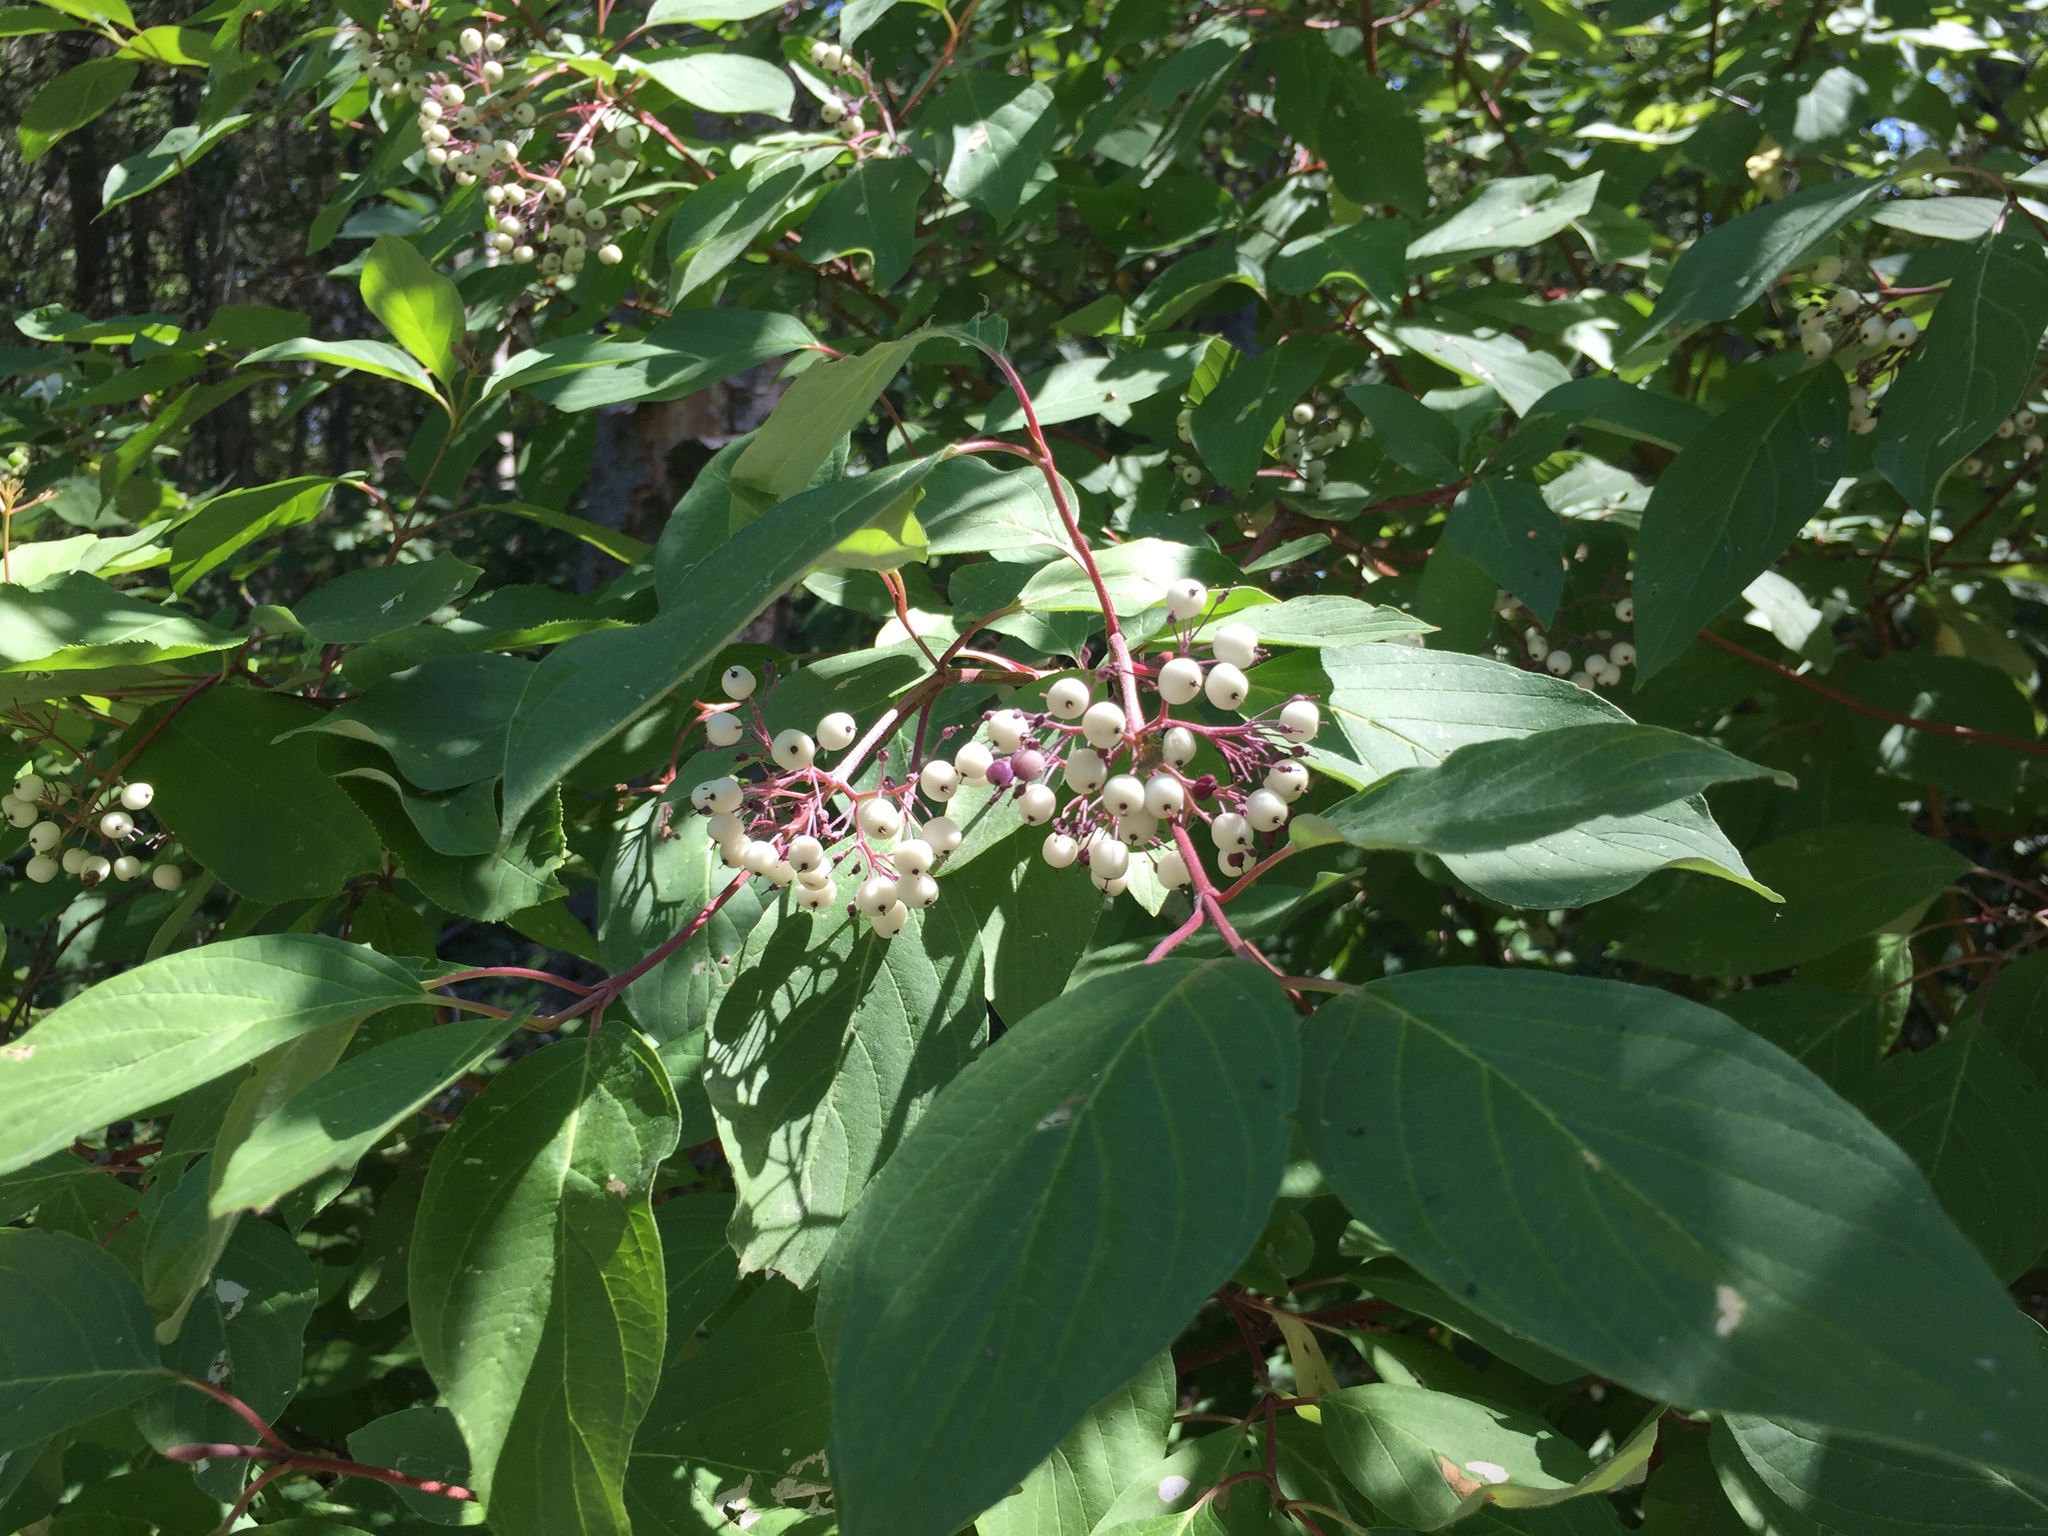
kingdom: Plantae
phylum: Tracheophyta
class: Magnoliopsida
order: Cornales
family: Cornaceae
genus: Cornus
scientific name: Cornus sericea
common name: Red-osier dogwood
